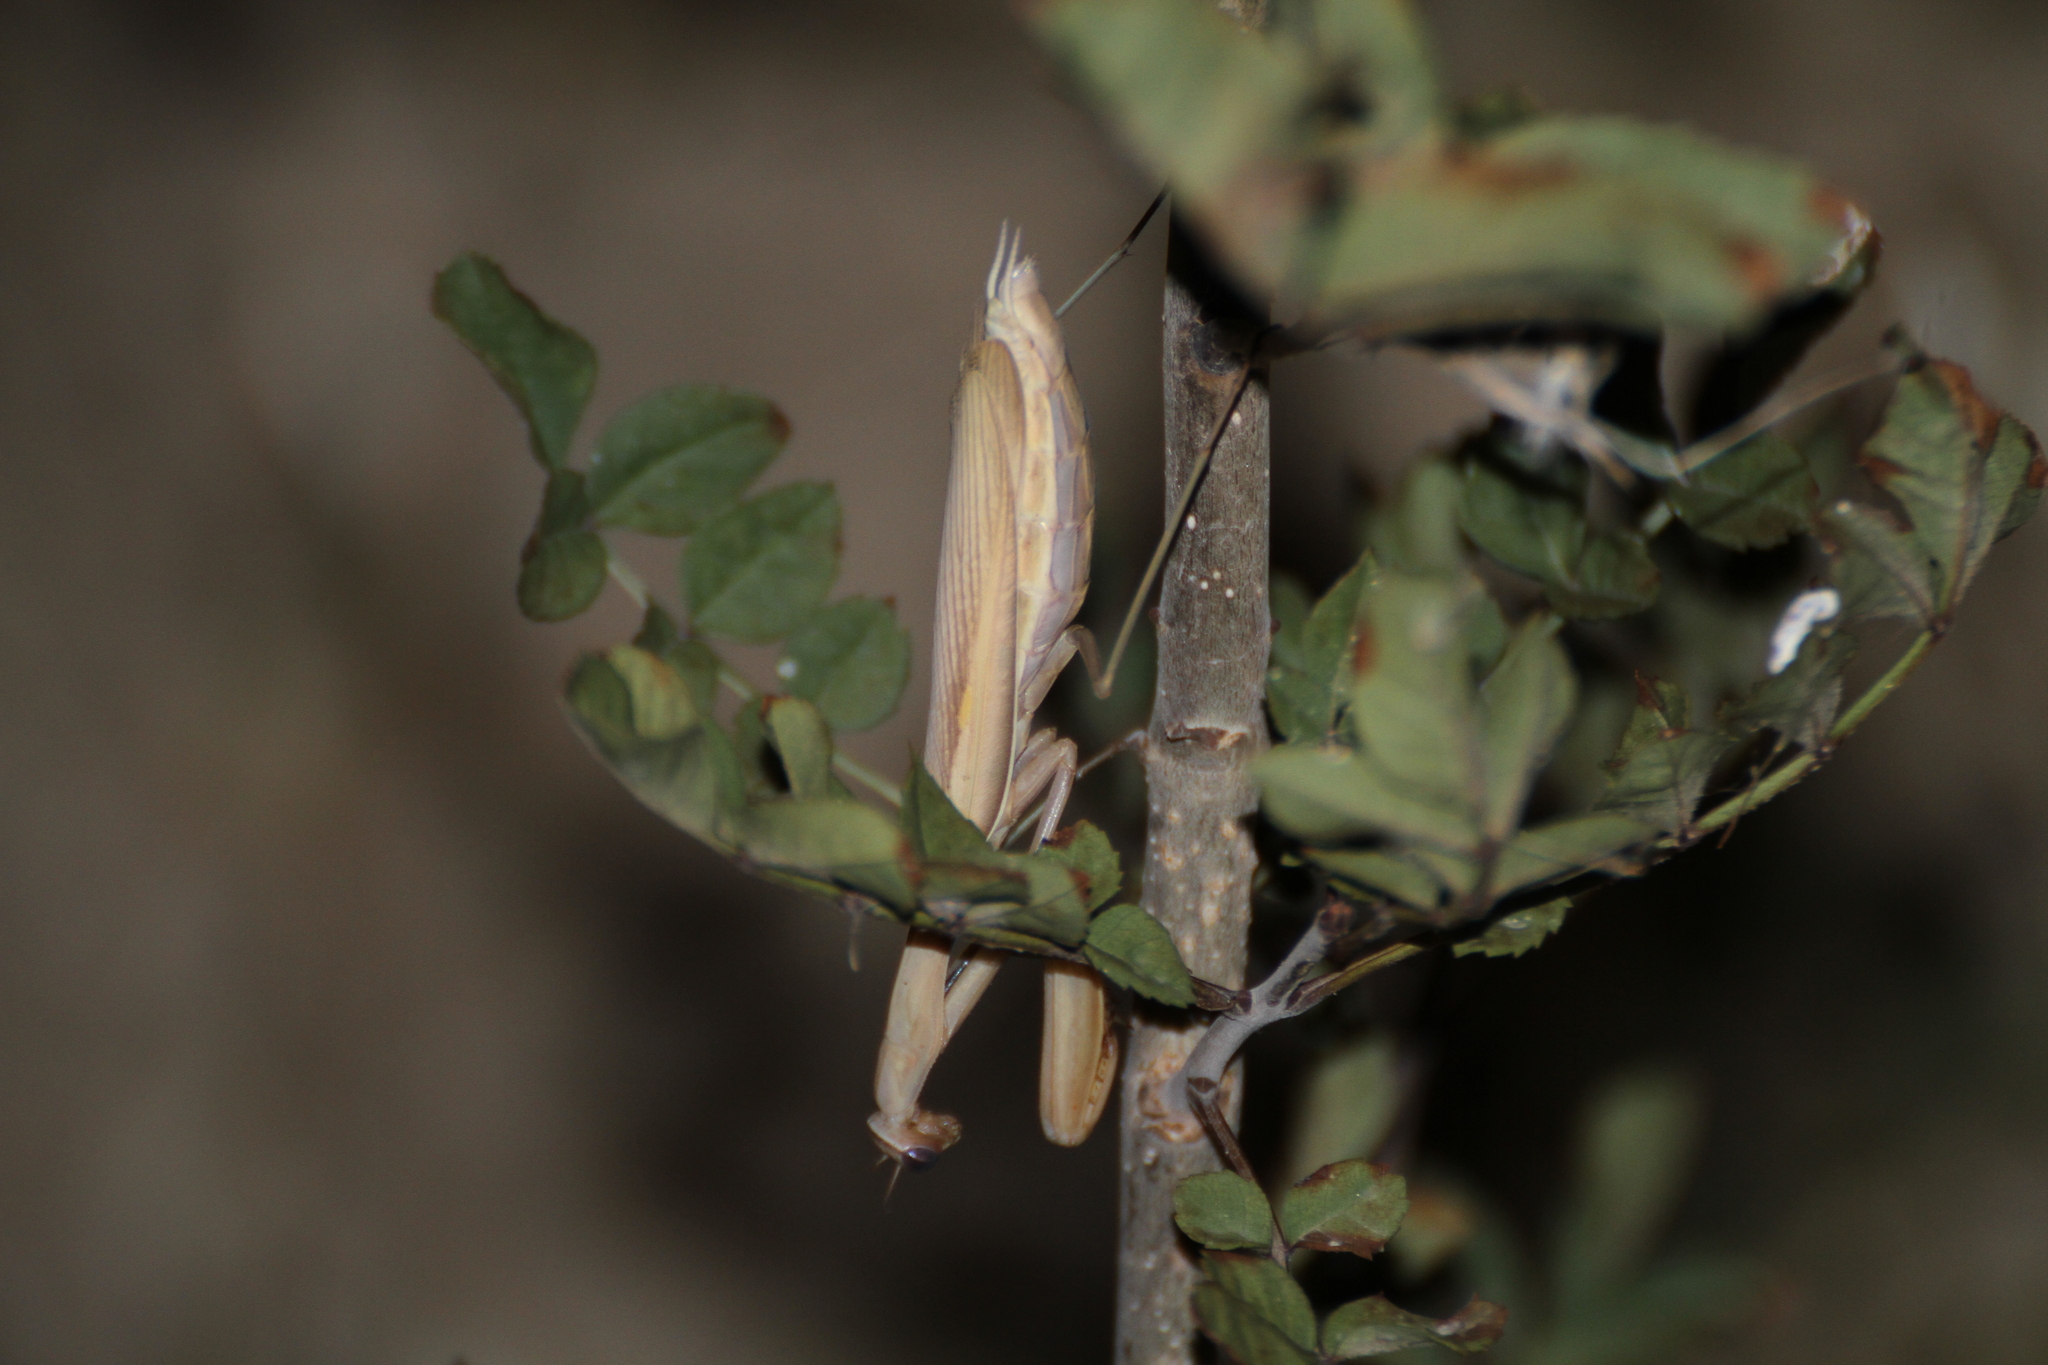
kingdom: Animalia
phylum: Arthropoda
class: Insecta
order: Mantodea
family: Mantidae
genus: Mantis
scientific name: Mantis religiosa
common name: Praying mantis
